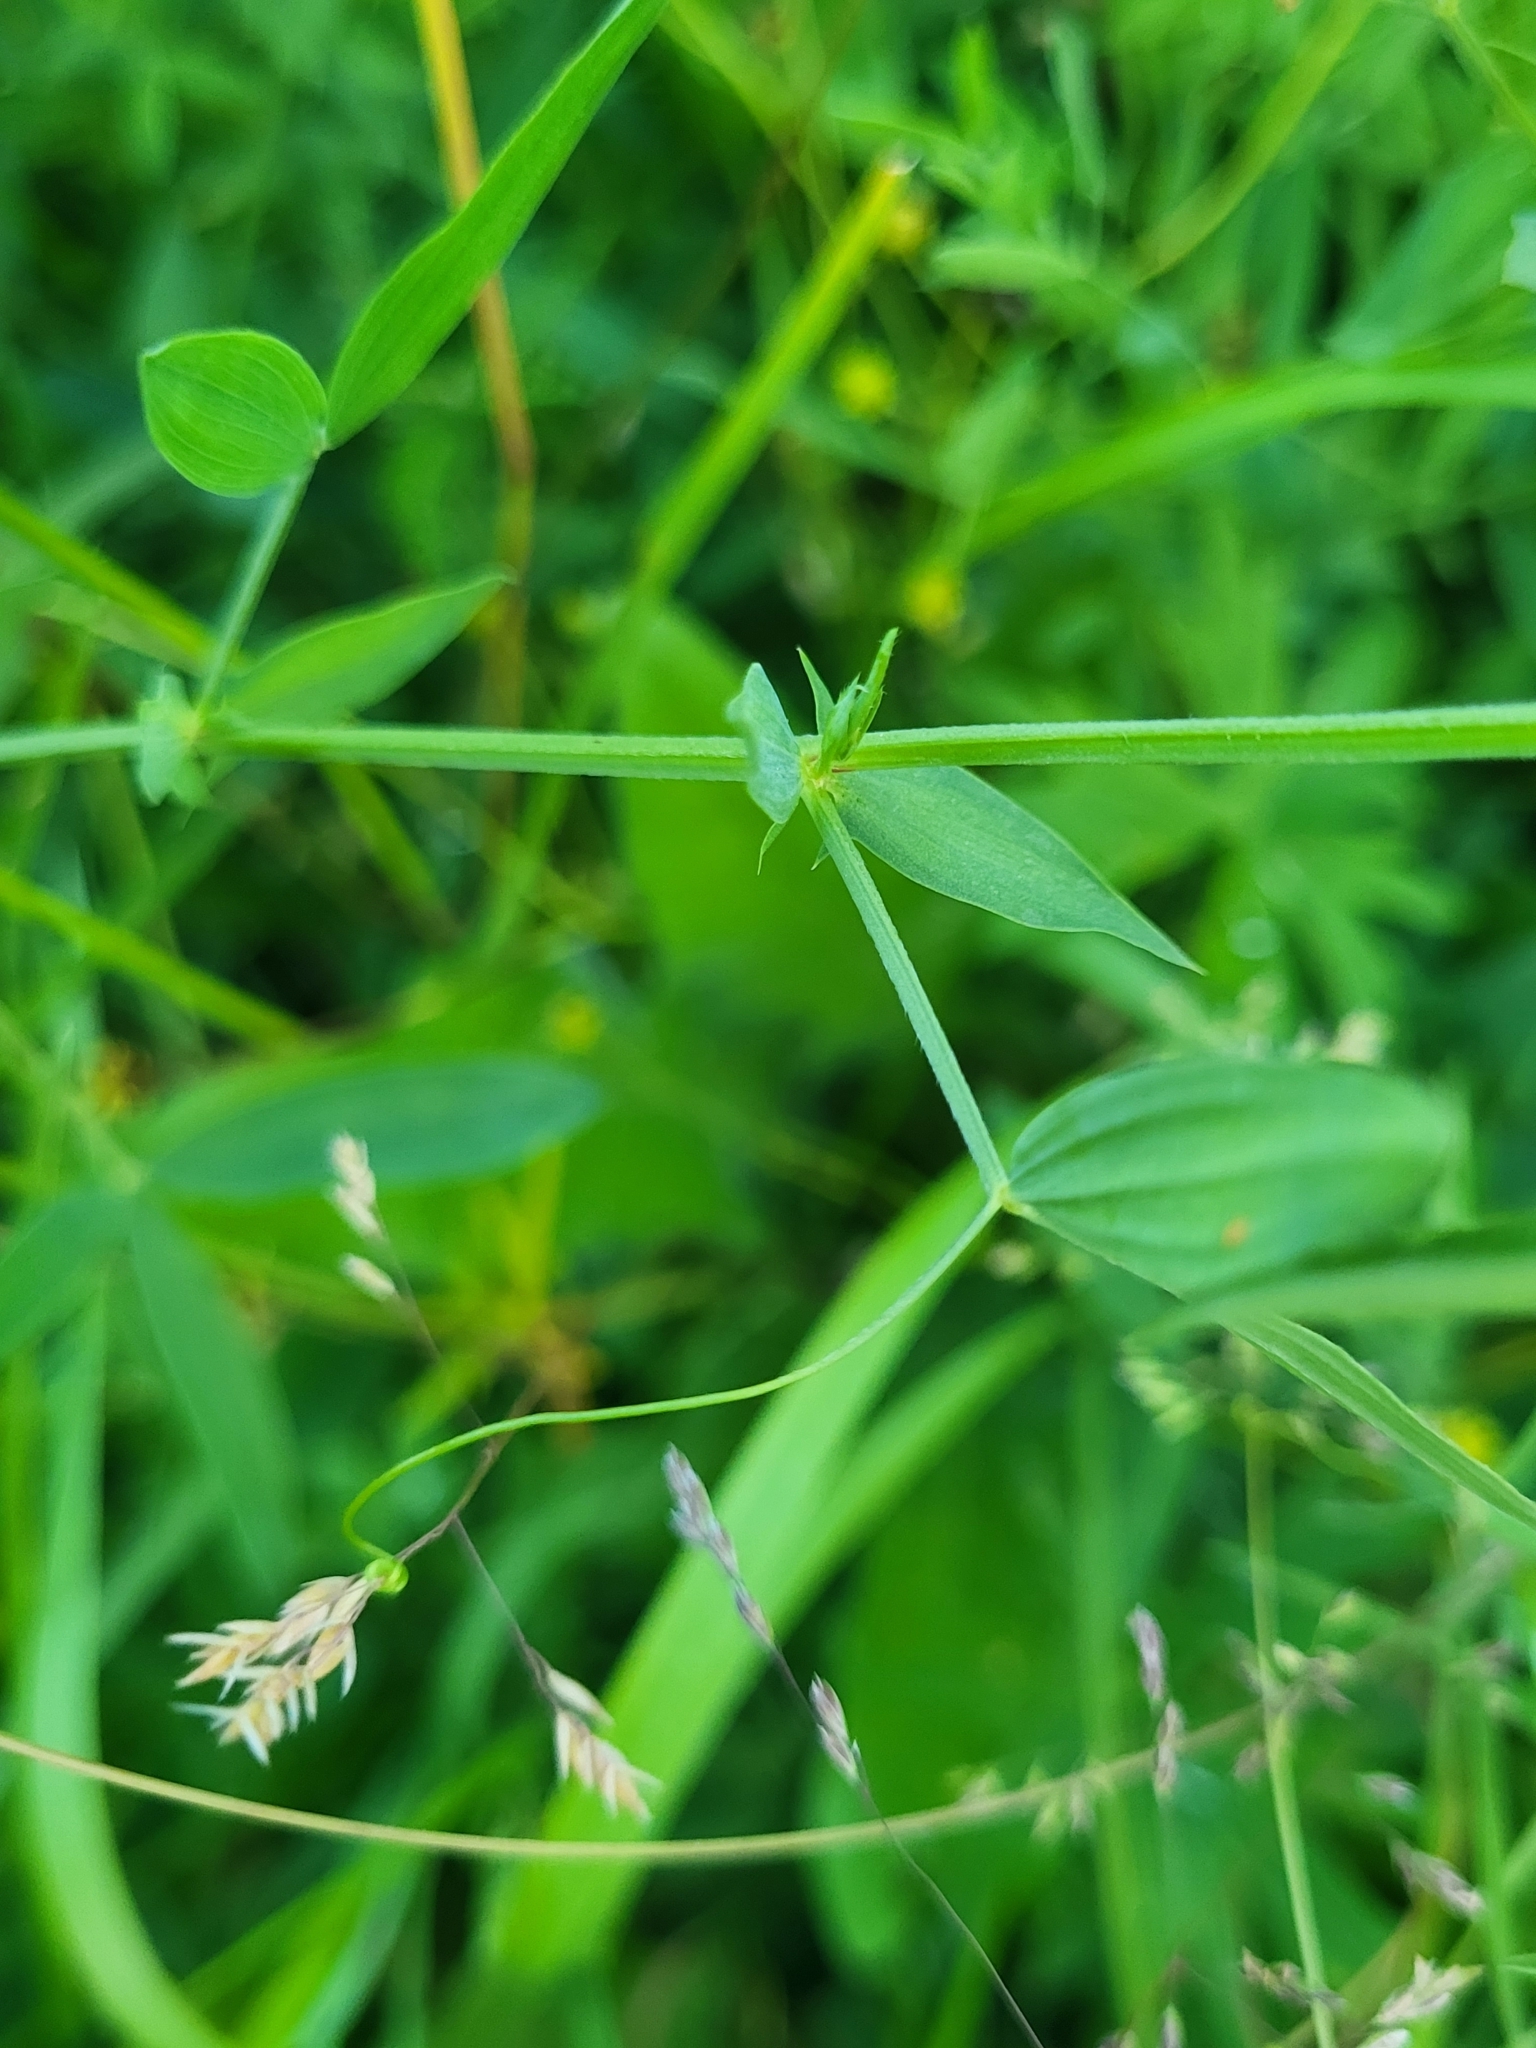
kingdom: Plantae
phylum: Tracheophyta
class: Magnoliopsida
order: Fabales
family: Fabaceae
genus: Lathyrus
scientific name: Lathyrus pratensis
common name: Meadow vetchling
